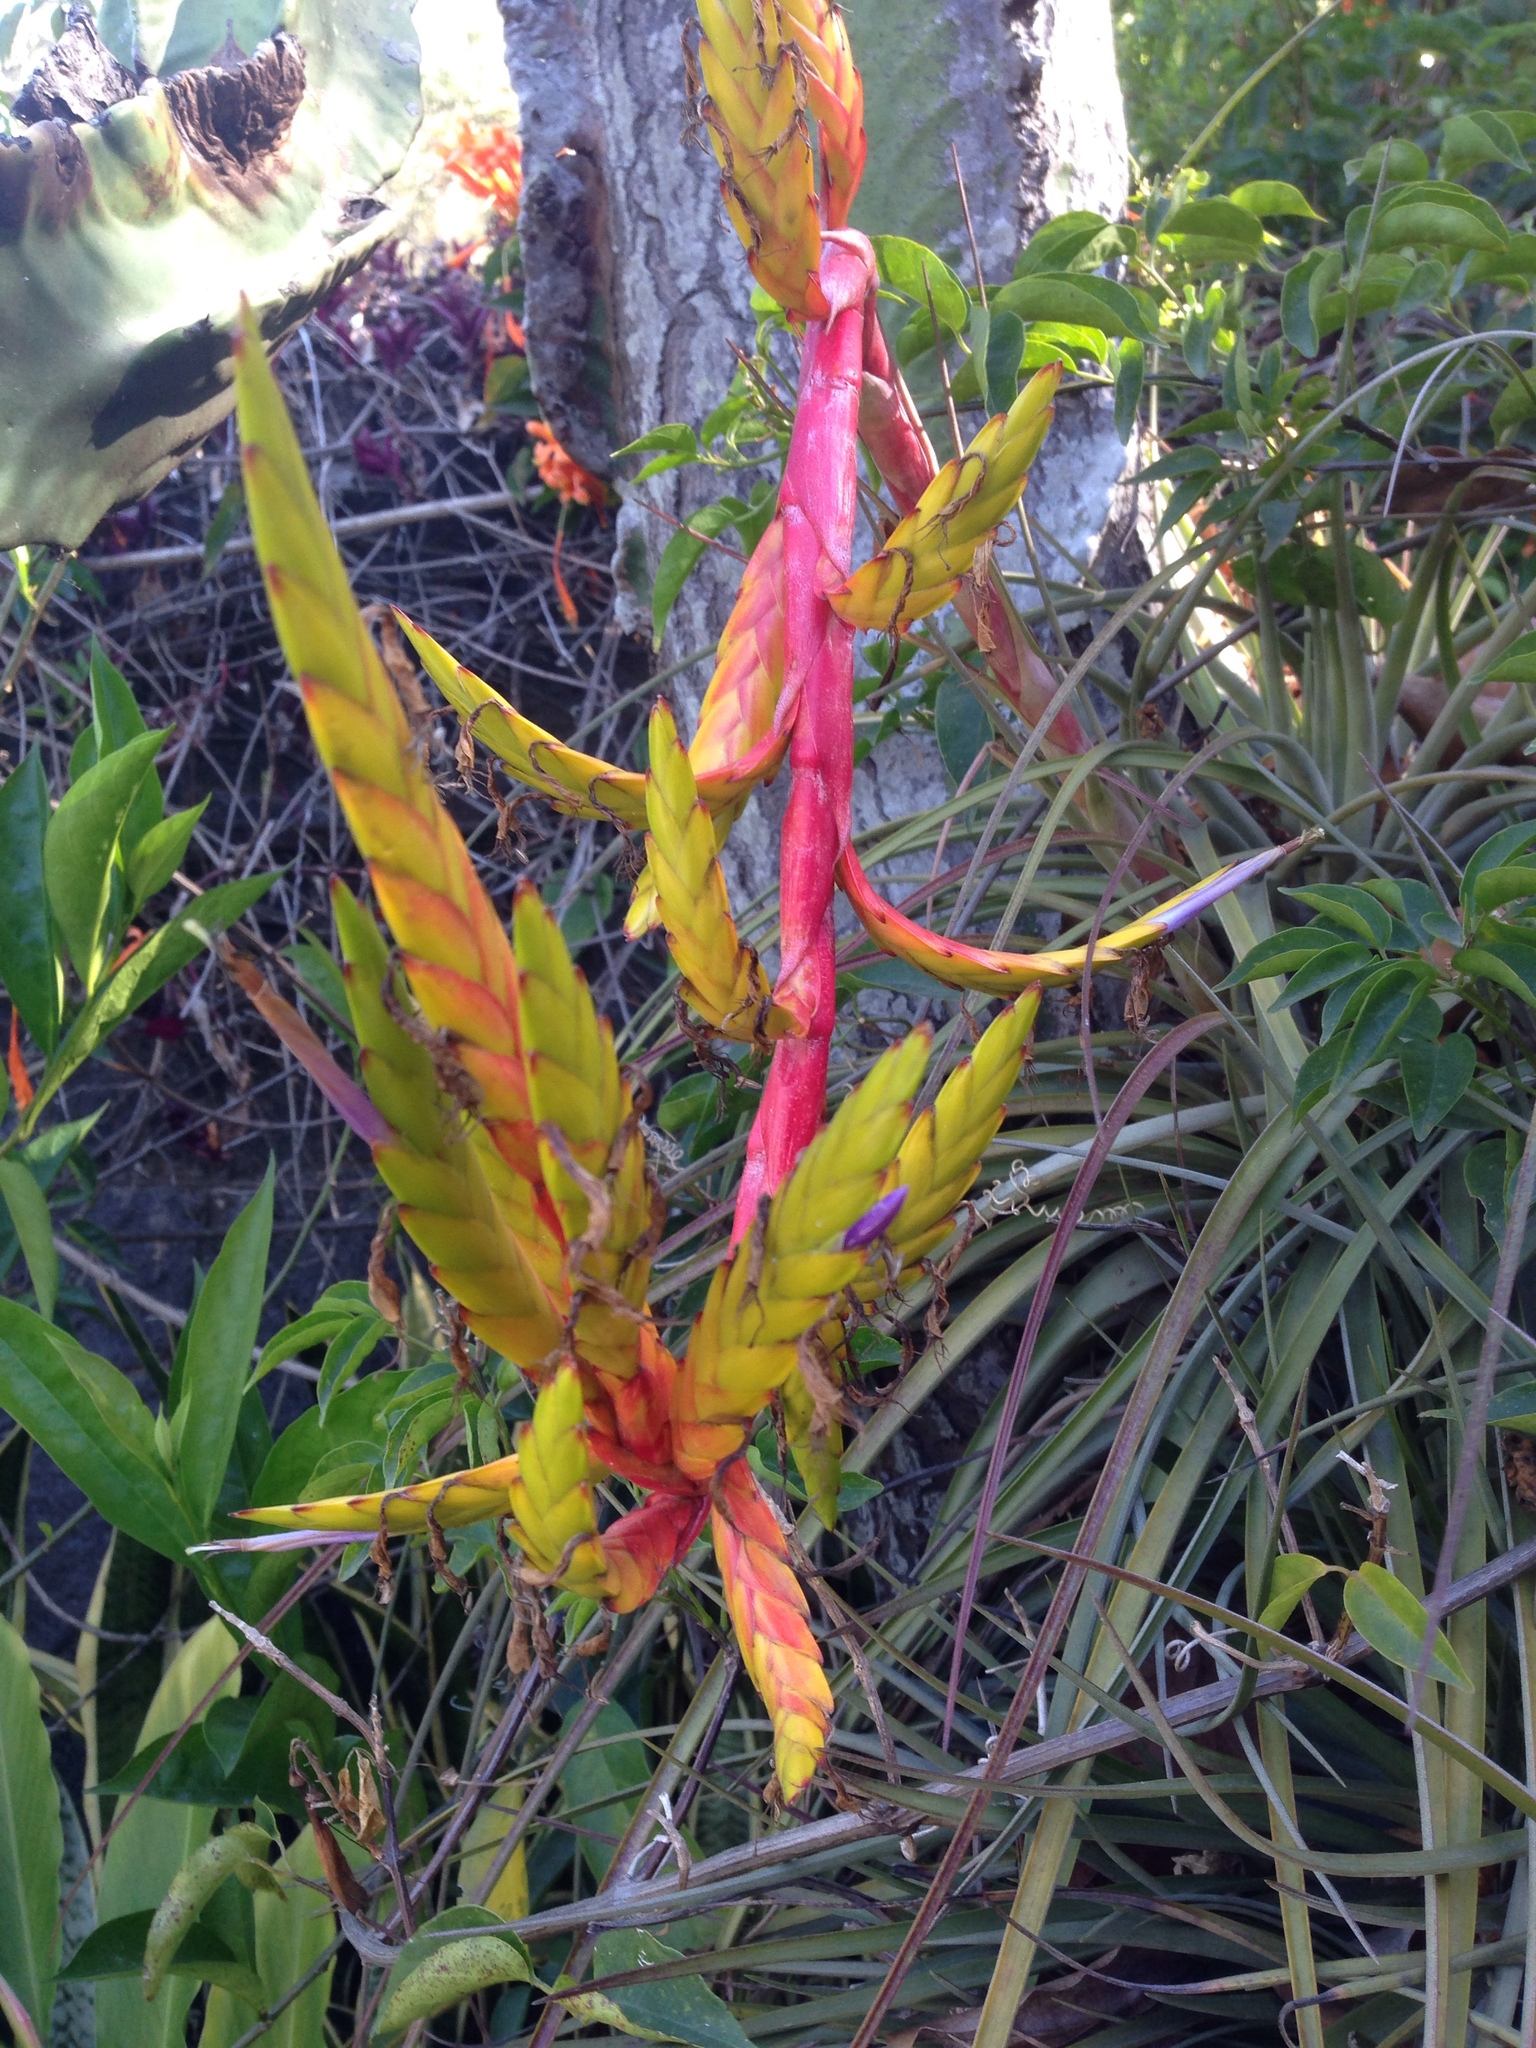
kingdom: Plantae
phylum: Tracheophyta
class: Liliopsida
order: Poales
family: Bromeliaceae
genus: Tillandsia
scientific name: Tillandsia rodrigueziana
